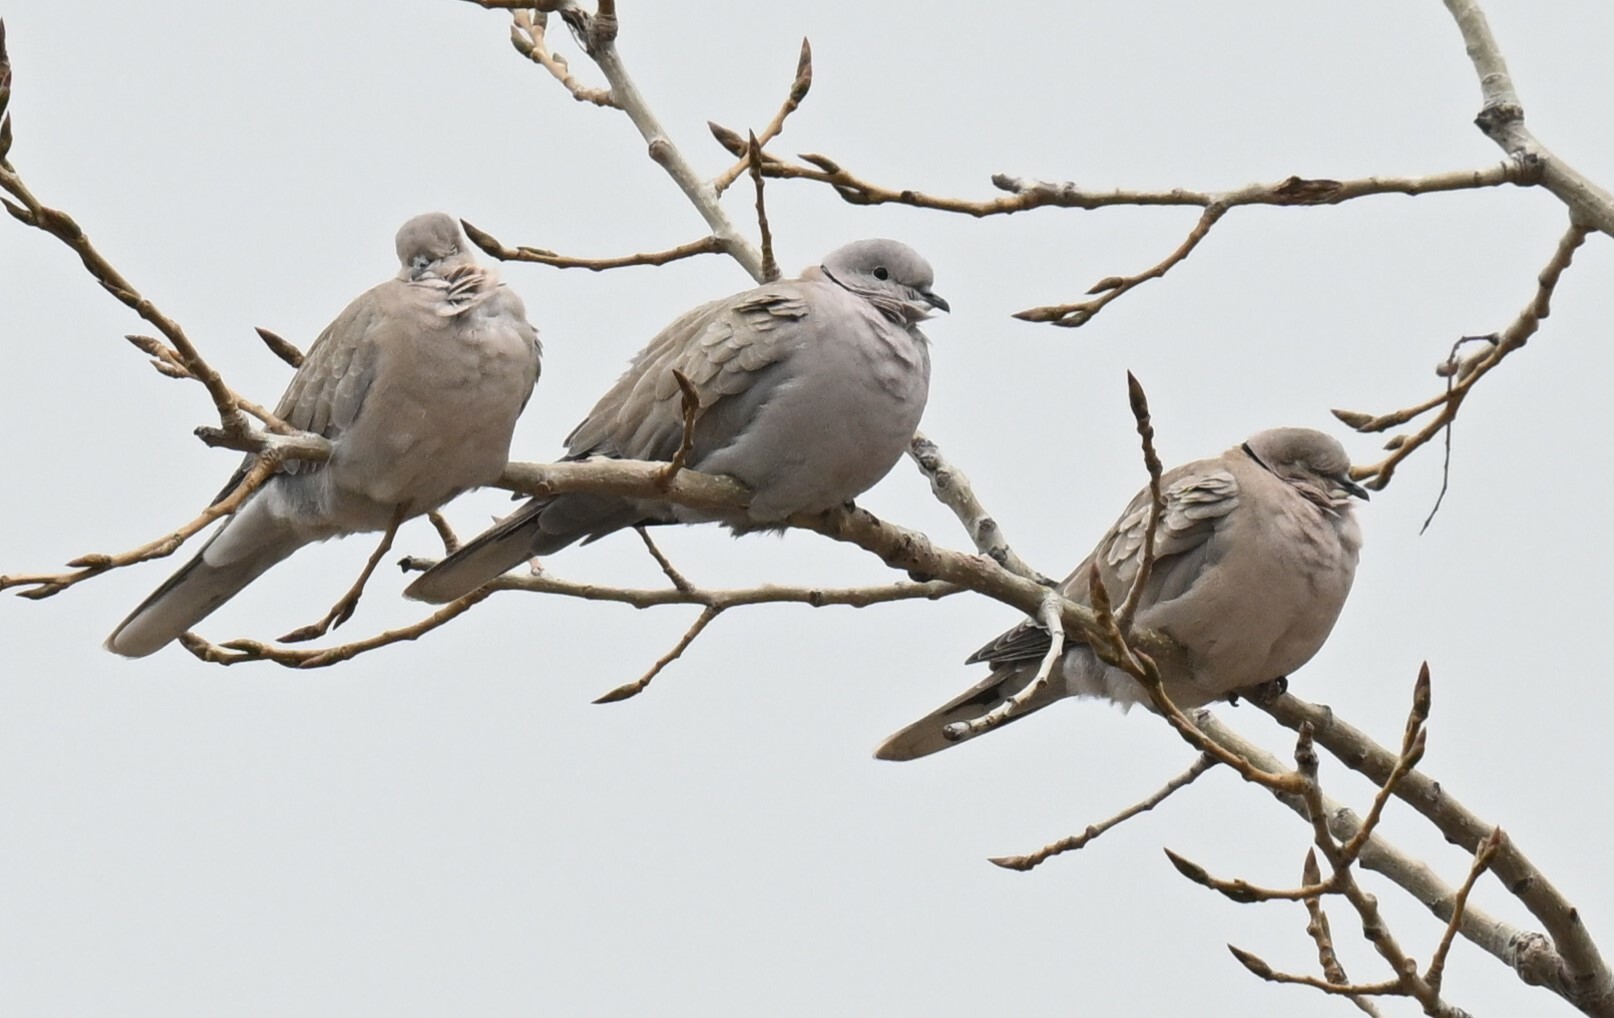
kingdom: Animalia
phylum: Chordata
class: Aves
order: Columbiformes
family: Columbidae
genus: Streptopelia
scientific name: Streptopelia decaocto
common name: Eurasian collared dove
